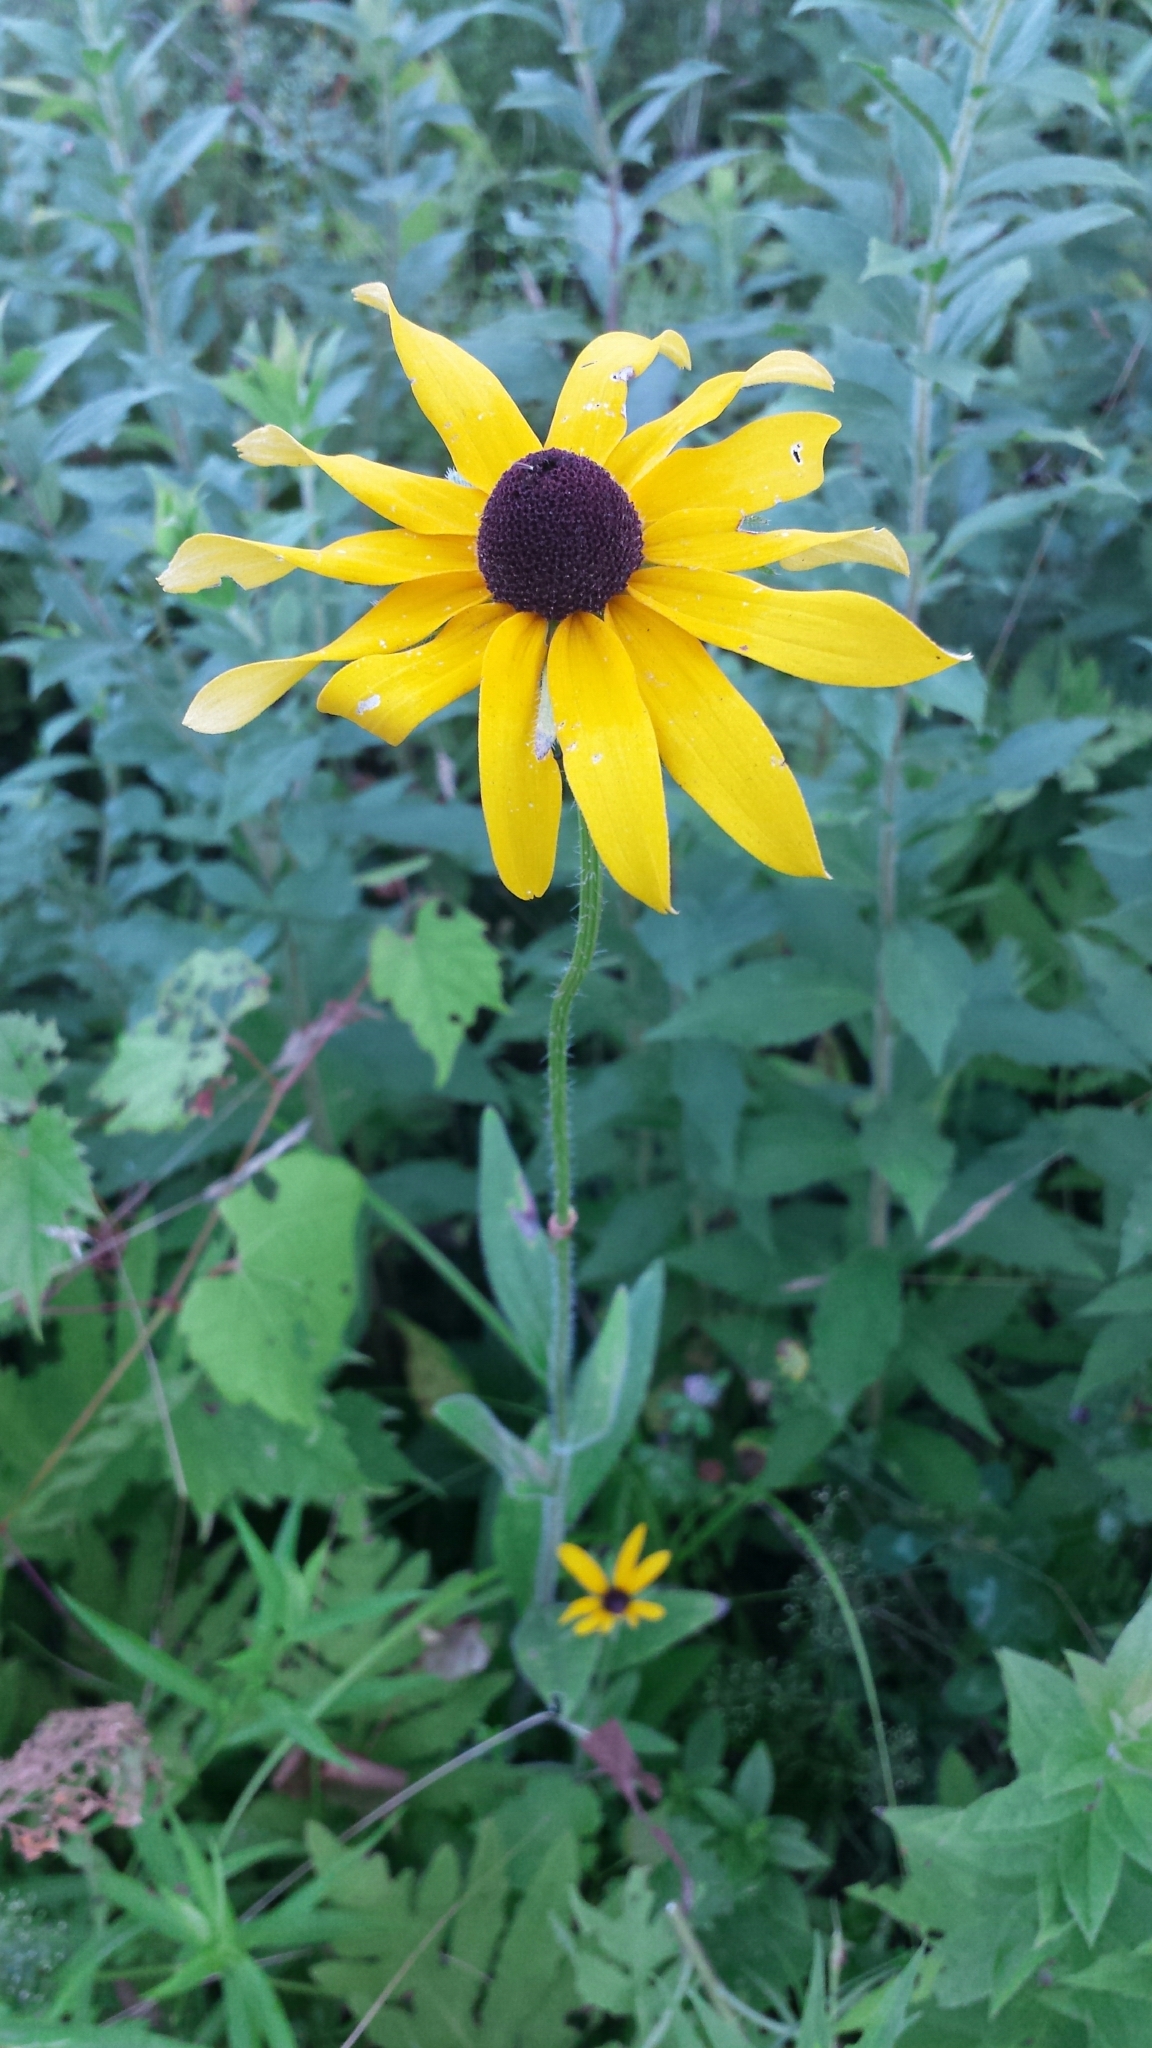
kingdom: Plantae
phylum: Tracheophyta
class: Magnoliopsida
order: Asterales
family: Asteraceae
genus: Rudbeckia
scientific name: Rudbeckia hirta
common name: Black-eyed-susan
